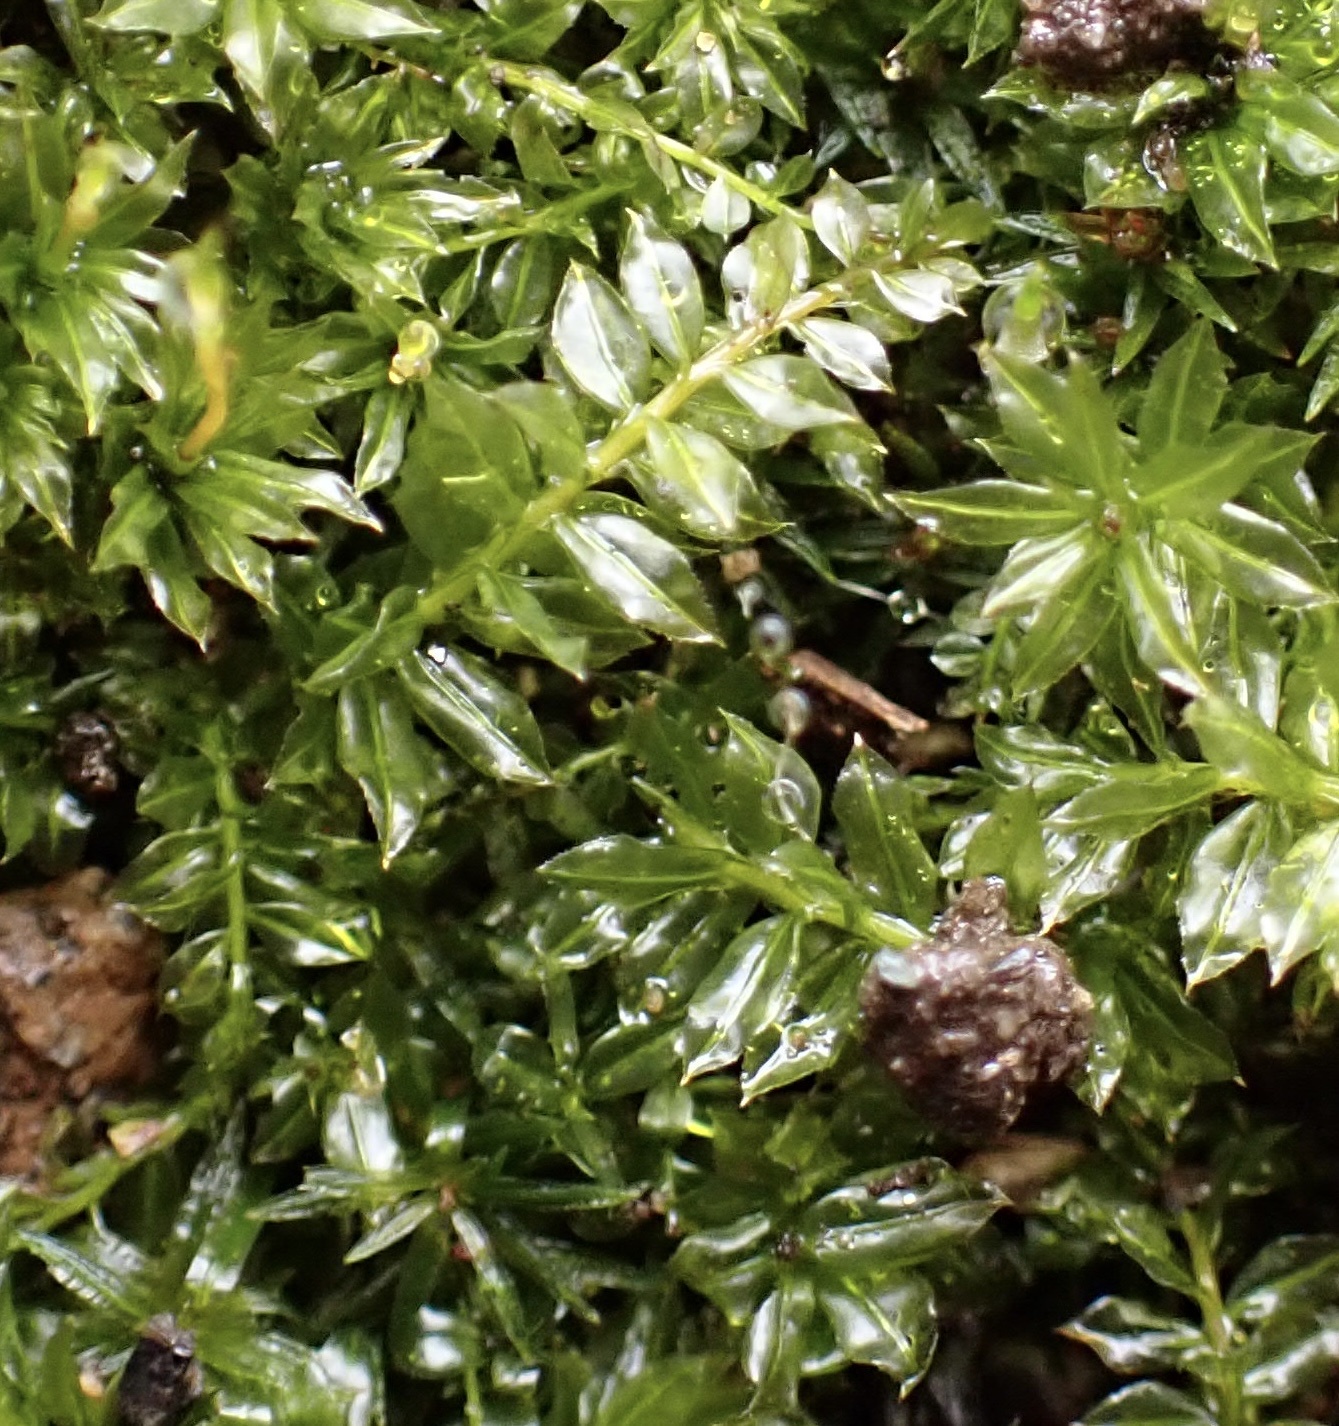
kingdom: Plantae
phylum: Bryophyta
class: Bryopsida
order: Bryales
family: Mniaceae
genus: Plagiomnium
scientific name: Plagiomnium cuspidatum
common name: Woodsy leafy moss
